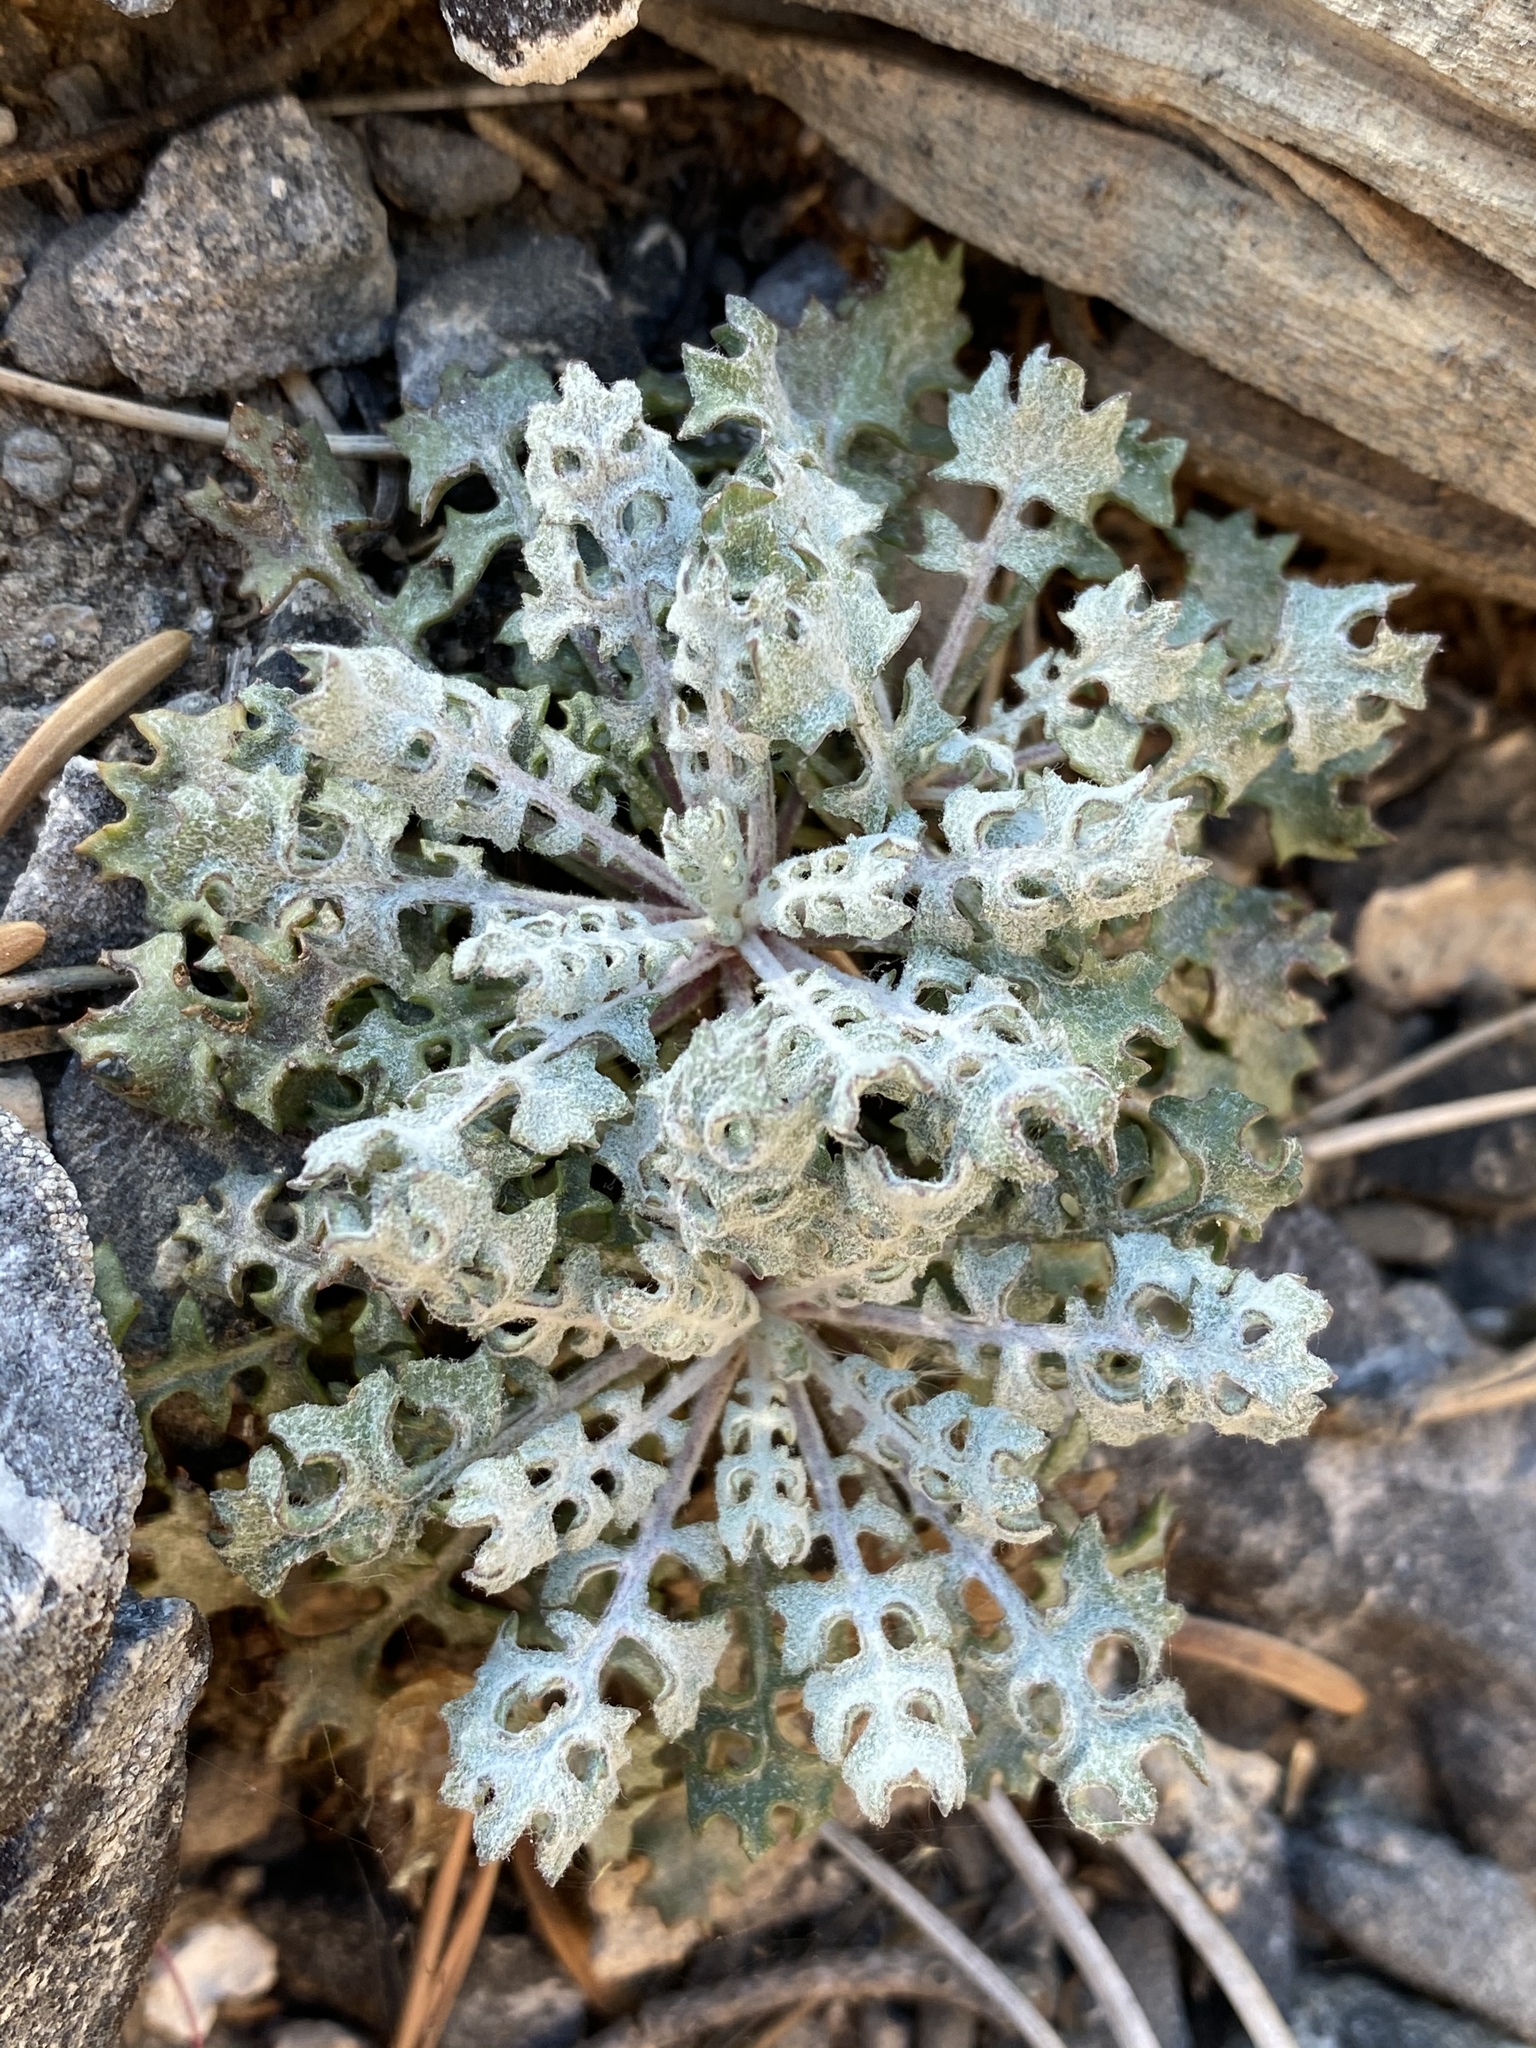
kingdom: Plantae
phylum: Tracheophyta
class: Magnoliopsida
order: Asterales
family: Asteraceae
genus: Packera
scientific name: Packera multilobata
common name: Lobe-leaf groundsel
